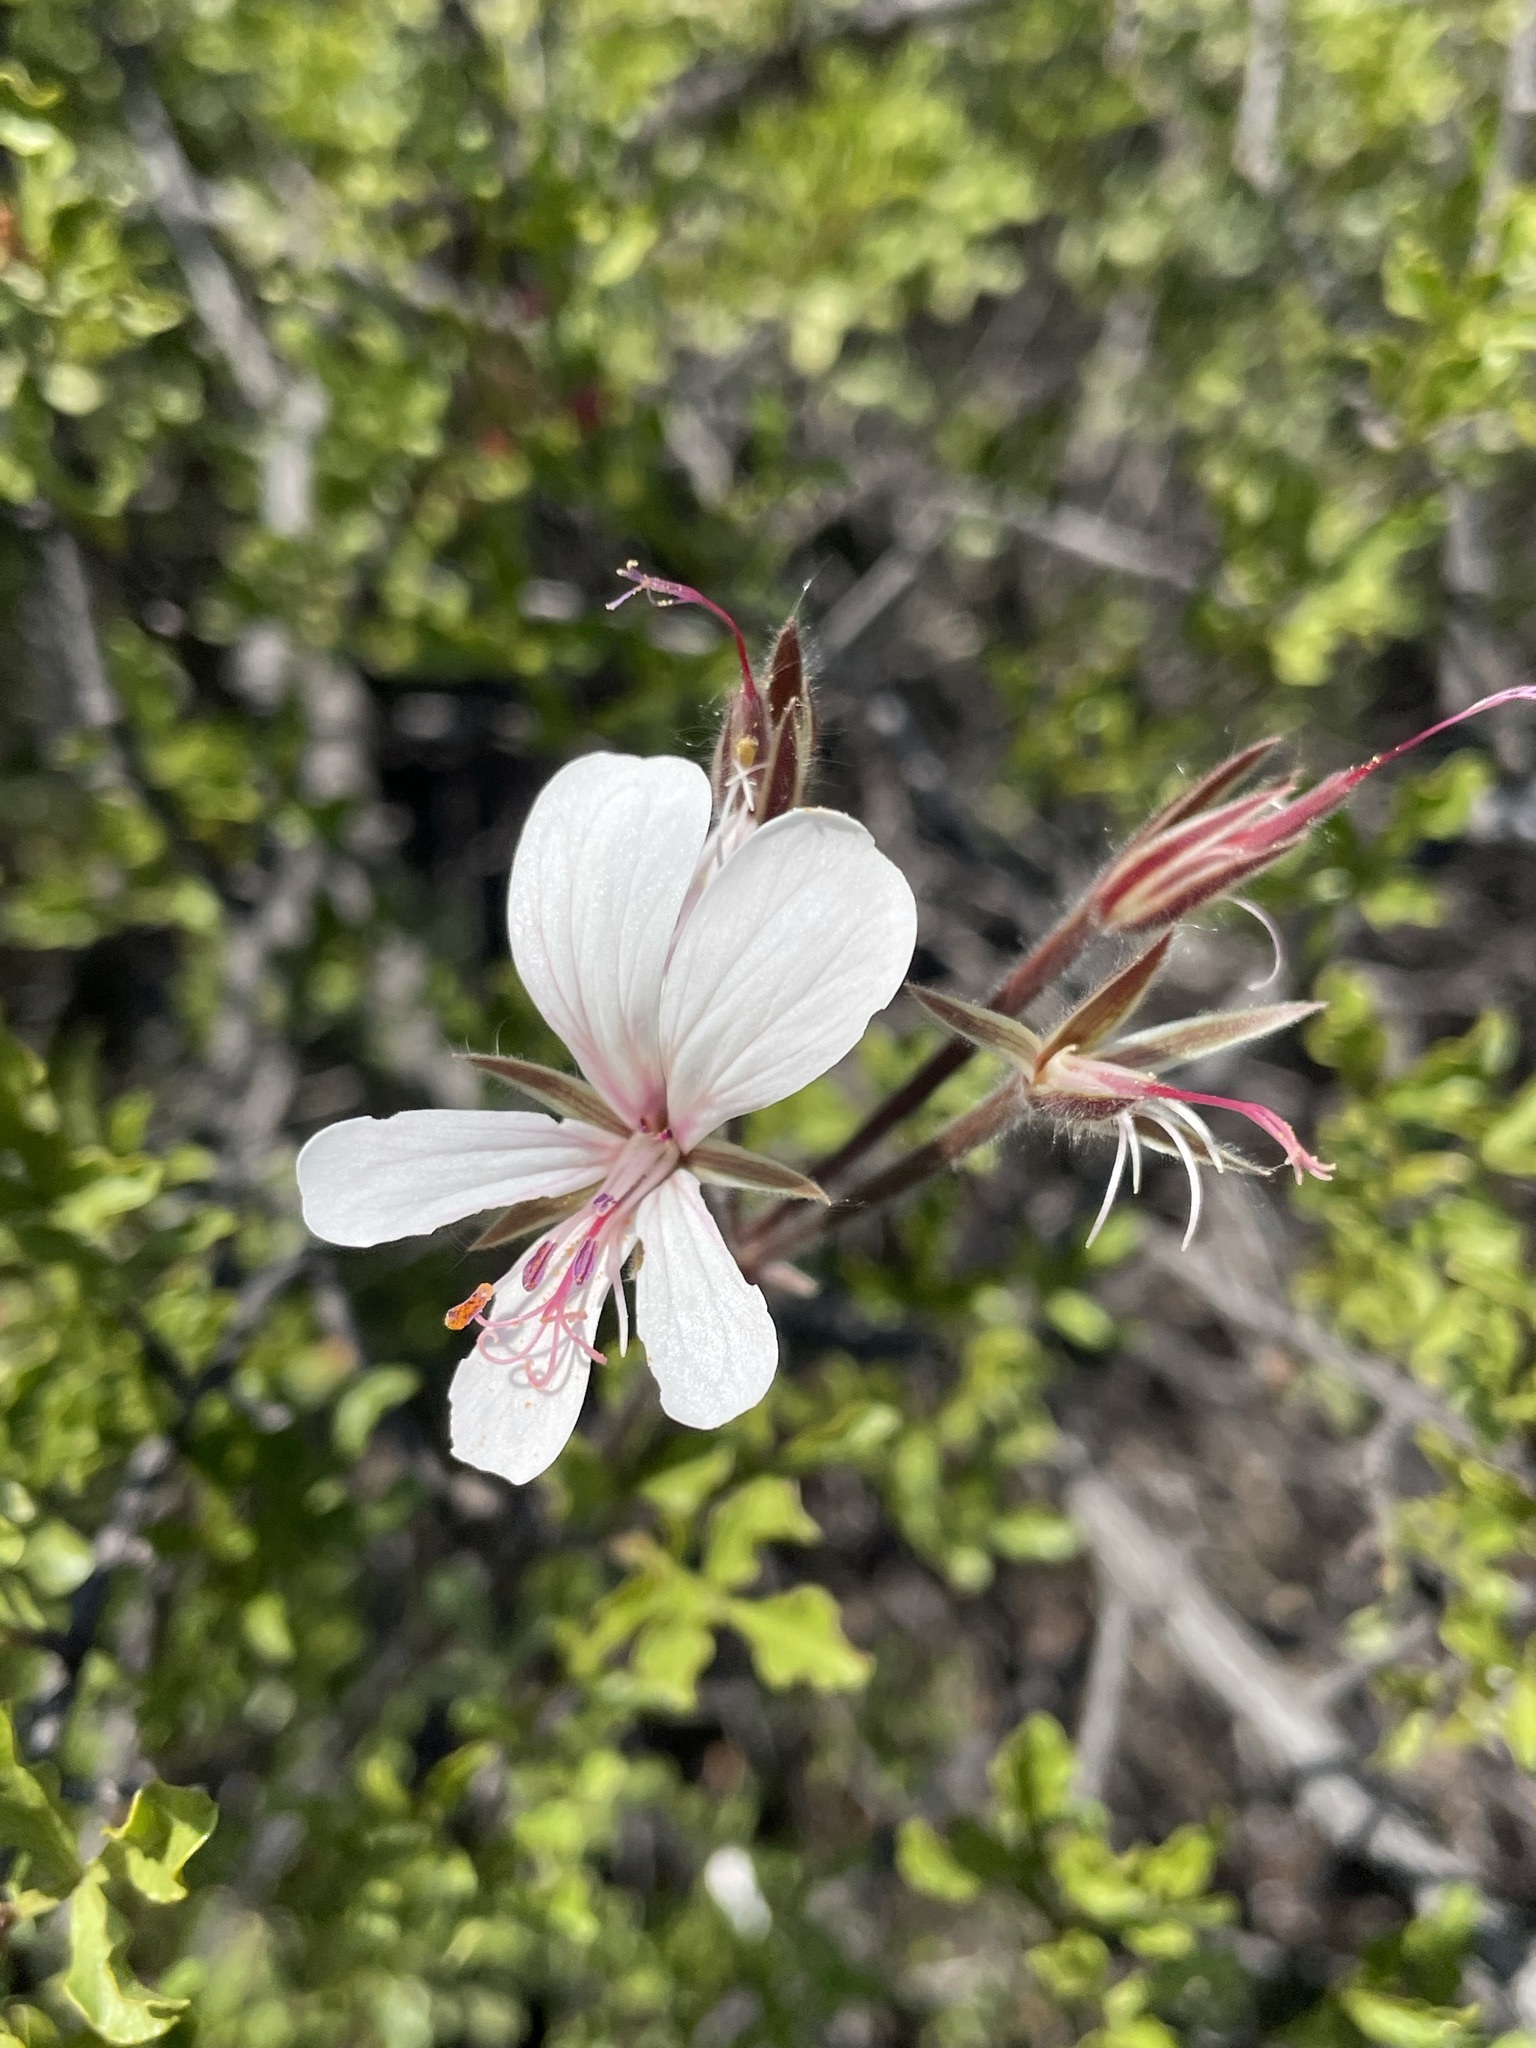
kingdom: Plantae
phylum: Tracheophyta
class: Magnoliopsida
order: Geraniales
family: Geraniaceae
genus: Pelargonium
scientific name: Pelargonium barklyi
